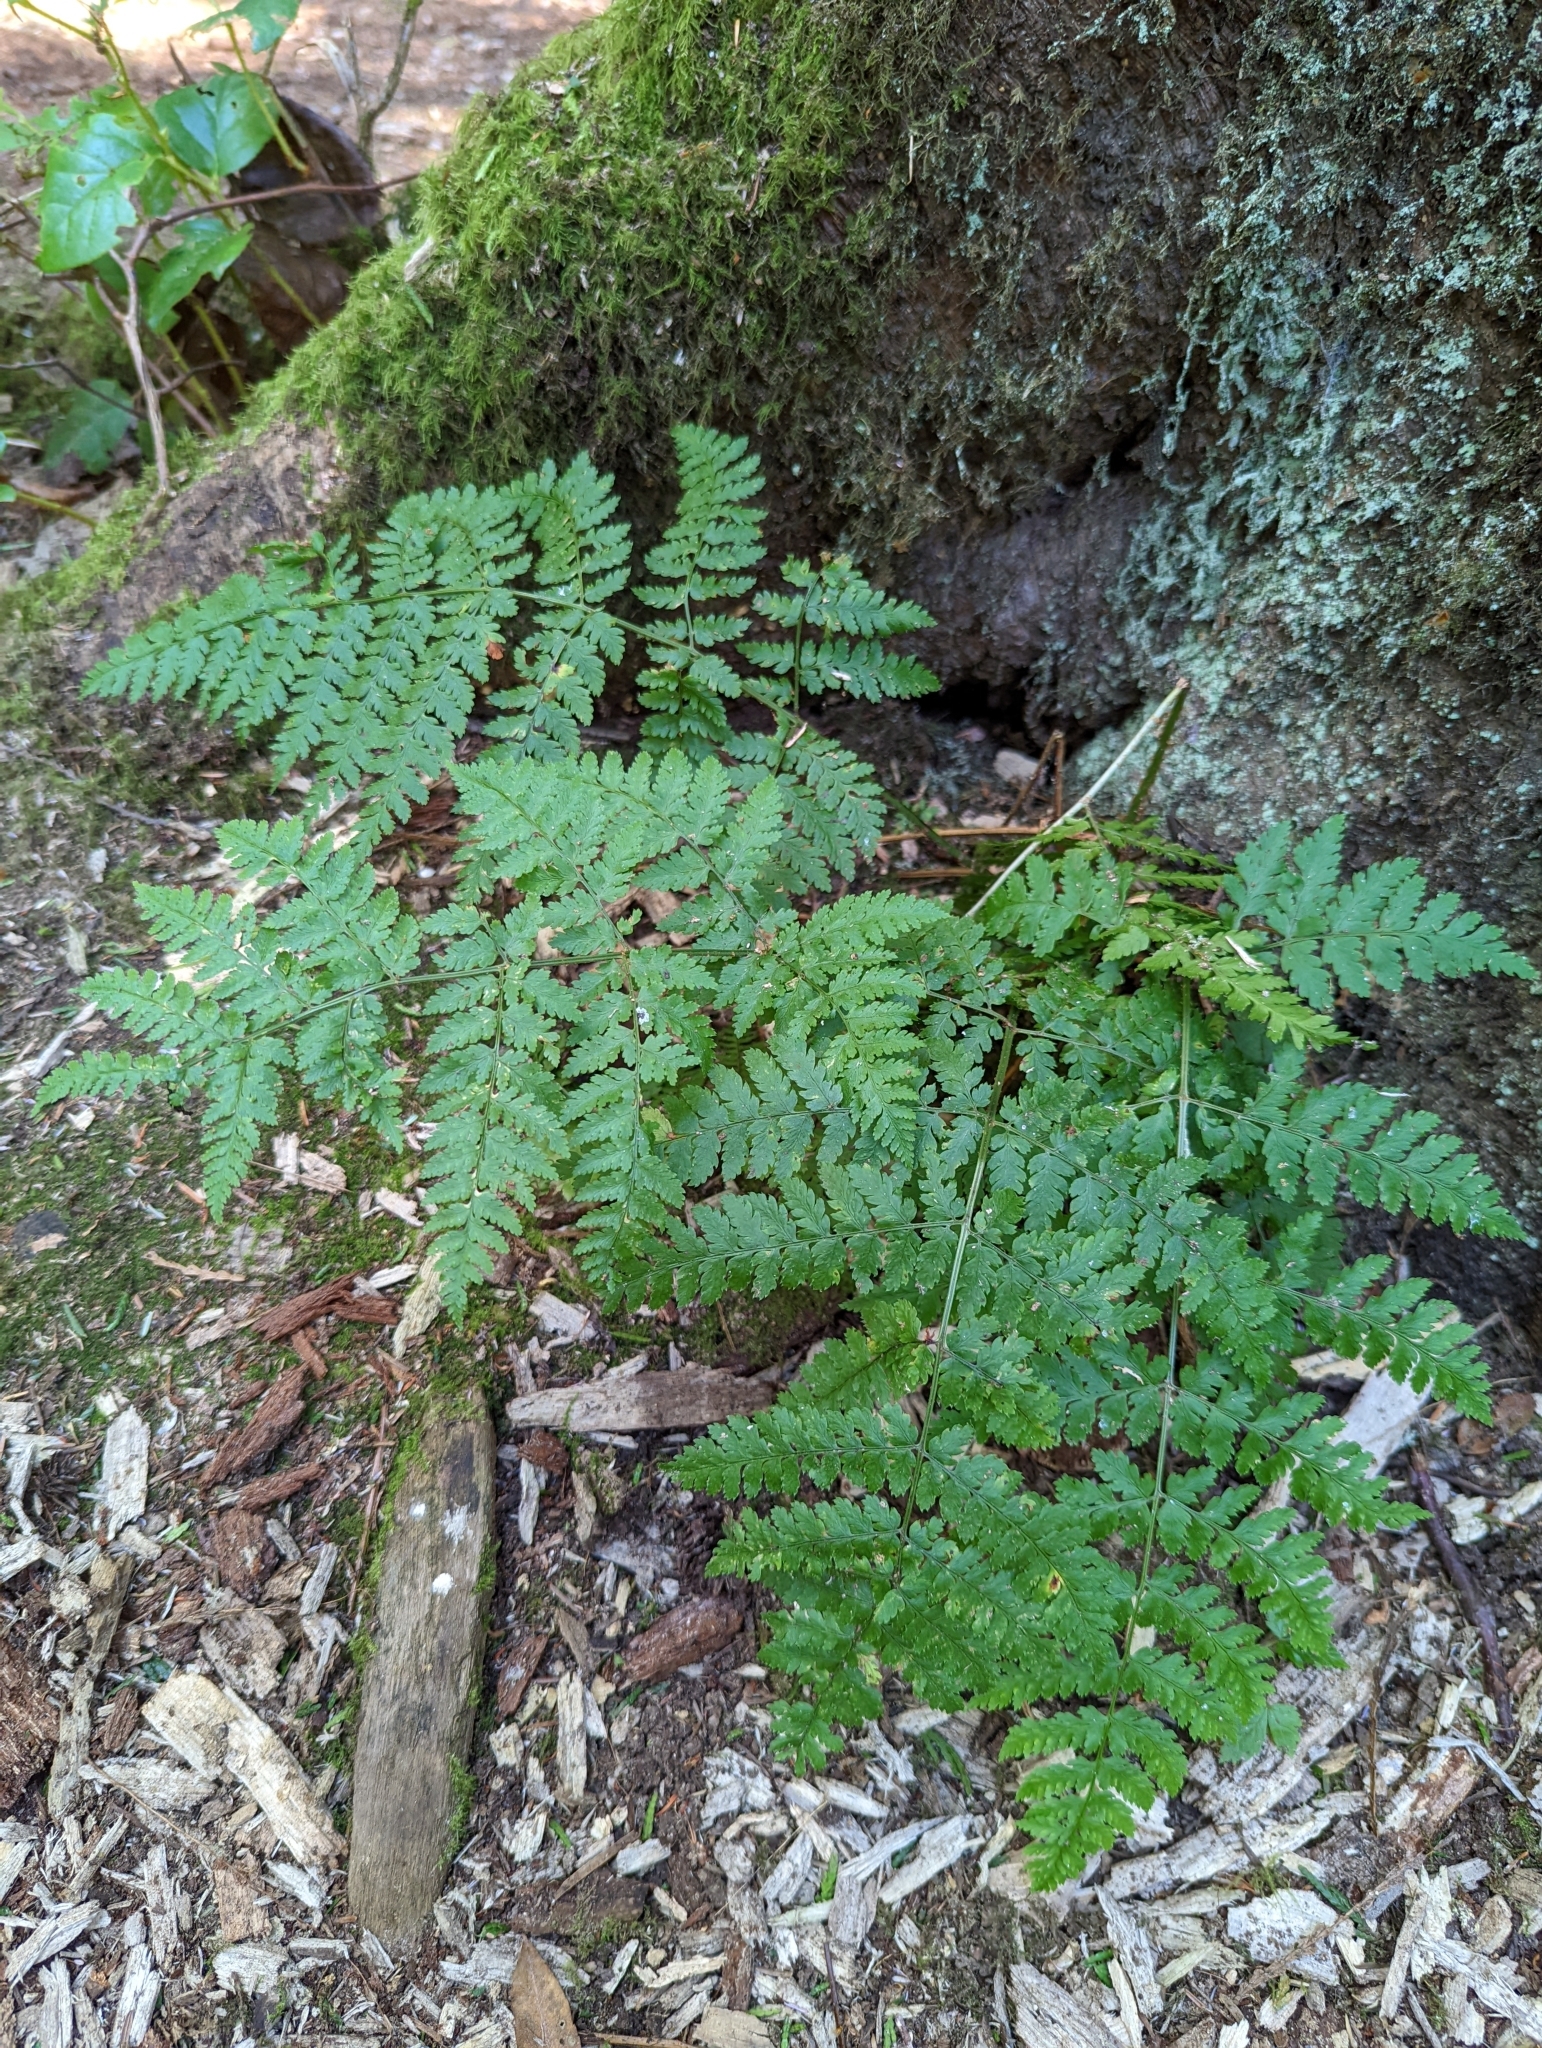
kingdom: Plantae
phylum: Tracheophyta
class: Polypodiopsida
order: Polypodiales
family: Dryopteridaceae
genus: Dryopteris
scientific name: Dryopteris expansa
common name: Northern buckler fern
